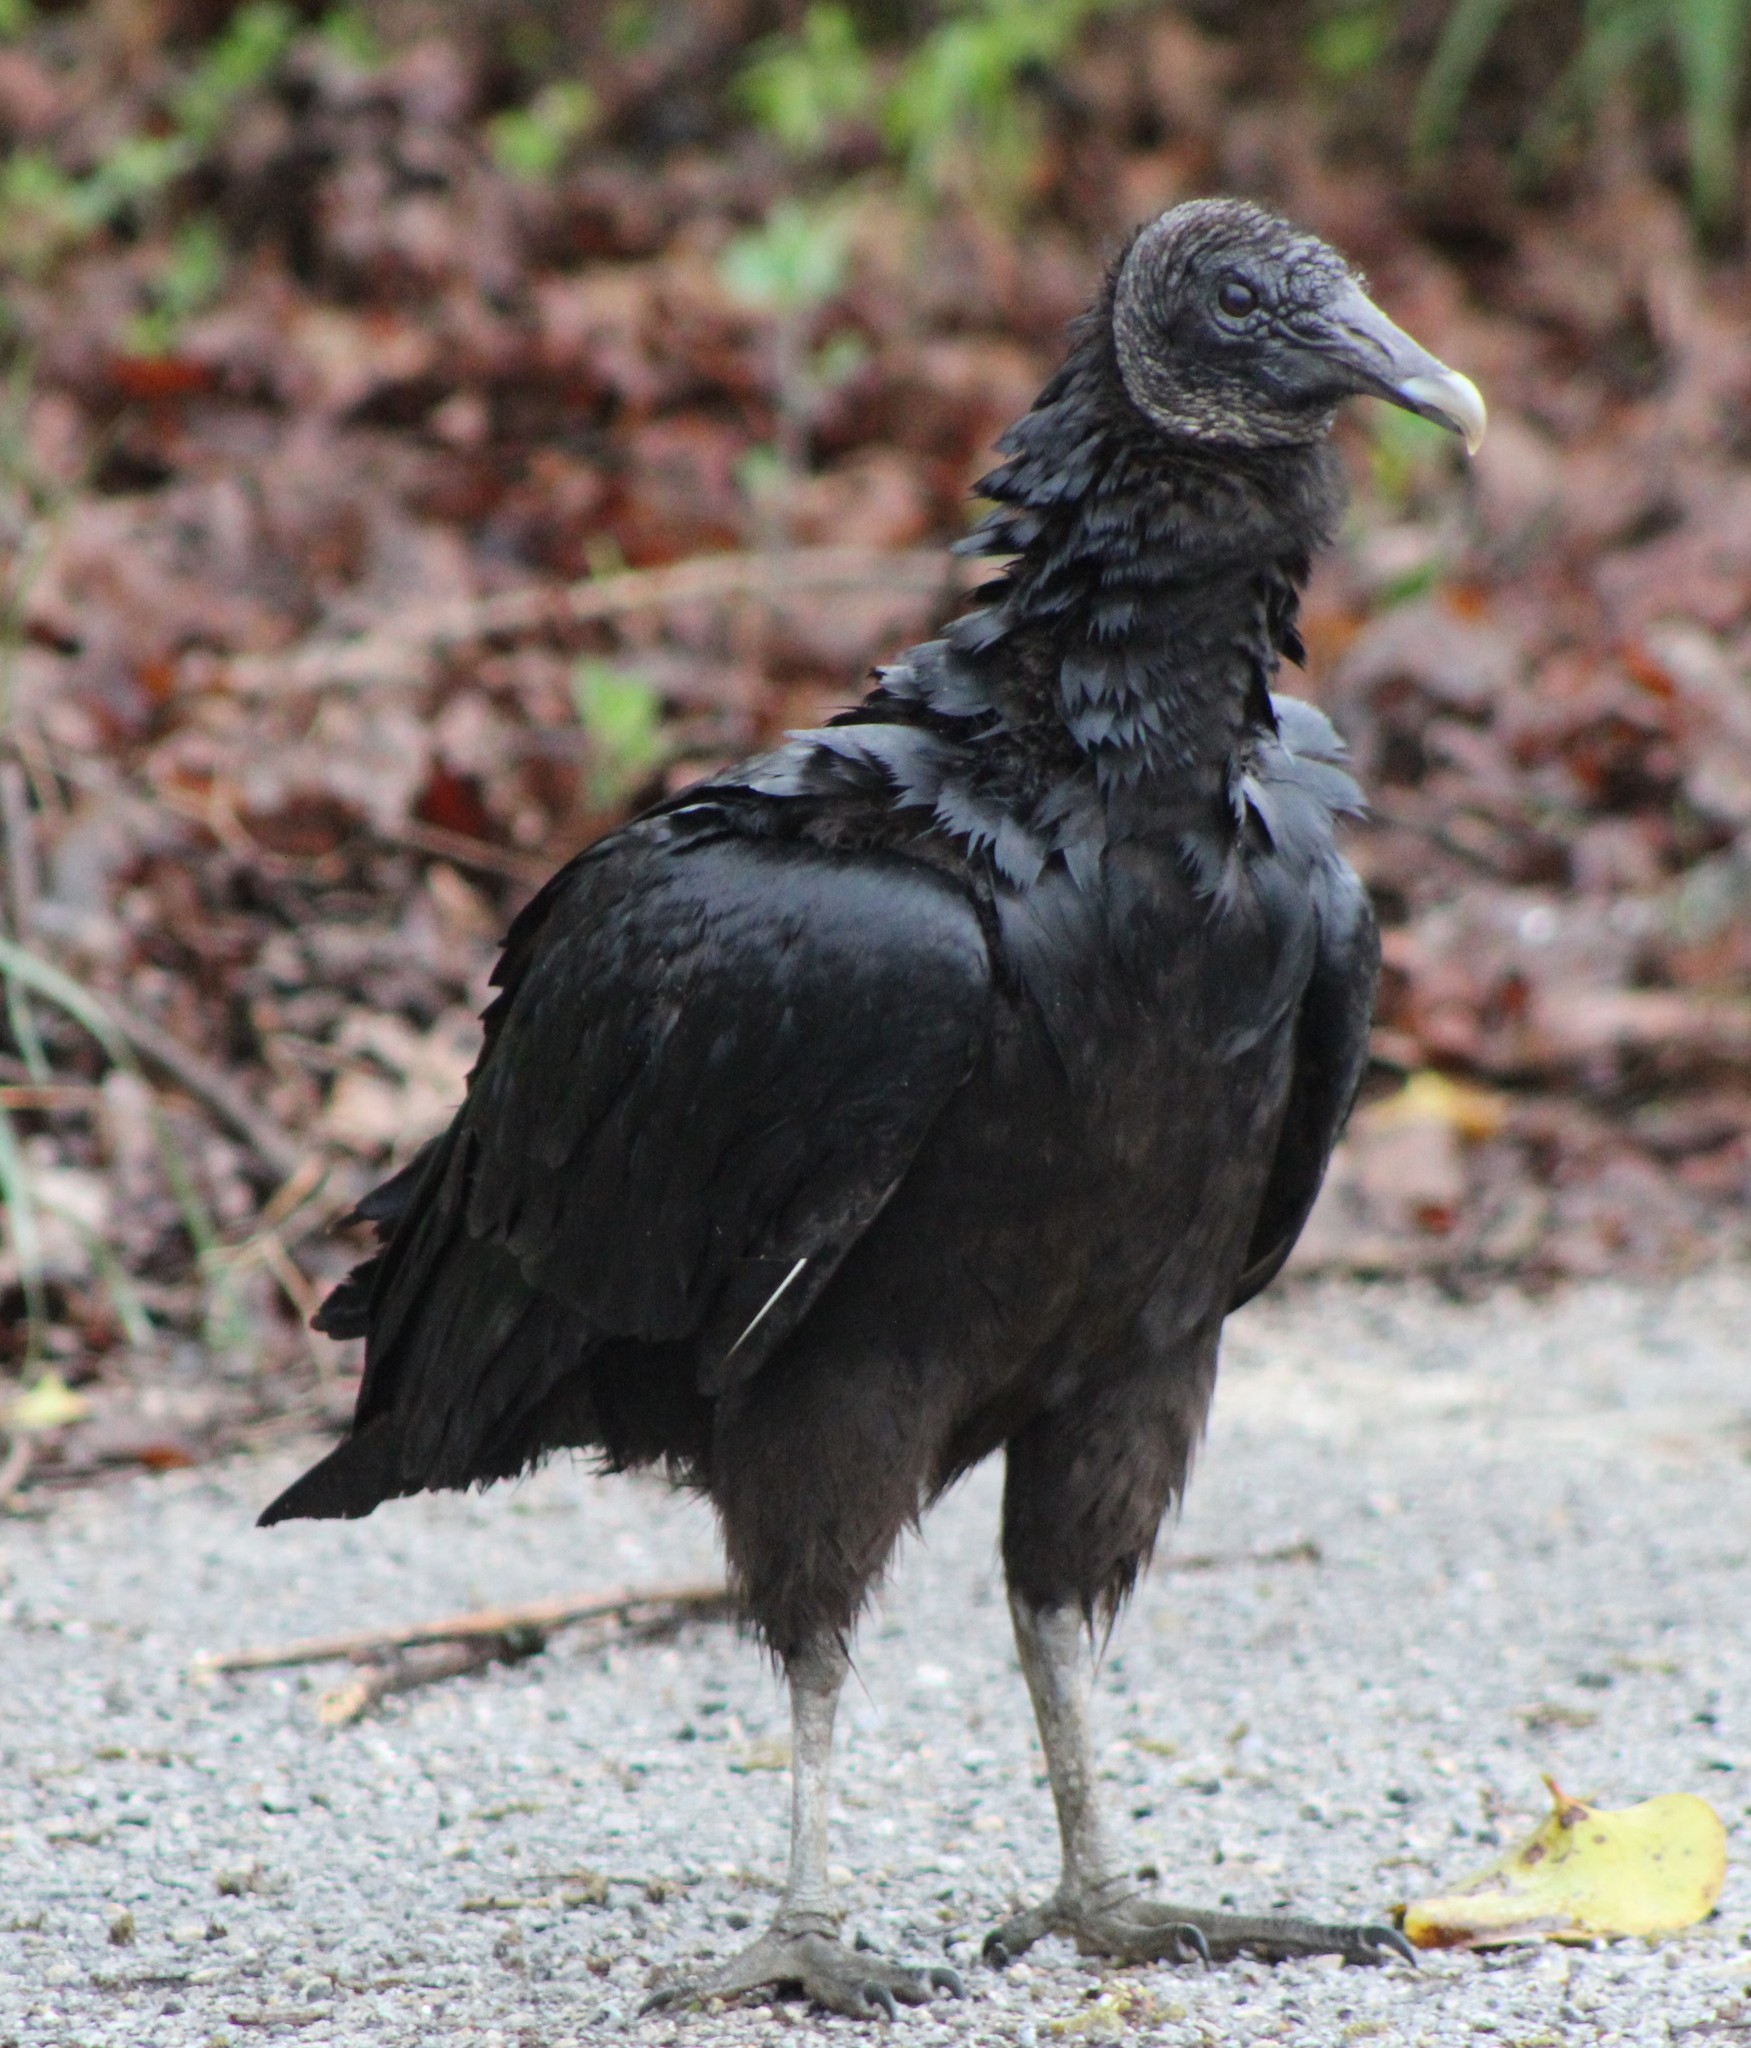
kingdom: Animalia
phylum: Chordata
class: Aves
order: Accipitriformes
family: Cathartidae
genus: Coragyps
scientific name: Coragyps atratus
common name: Black vulture
